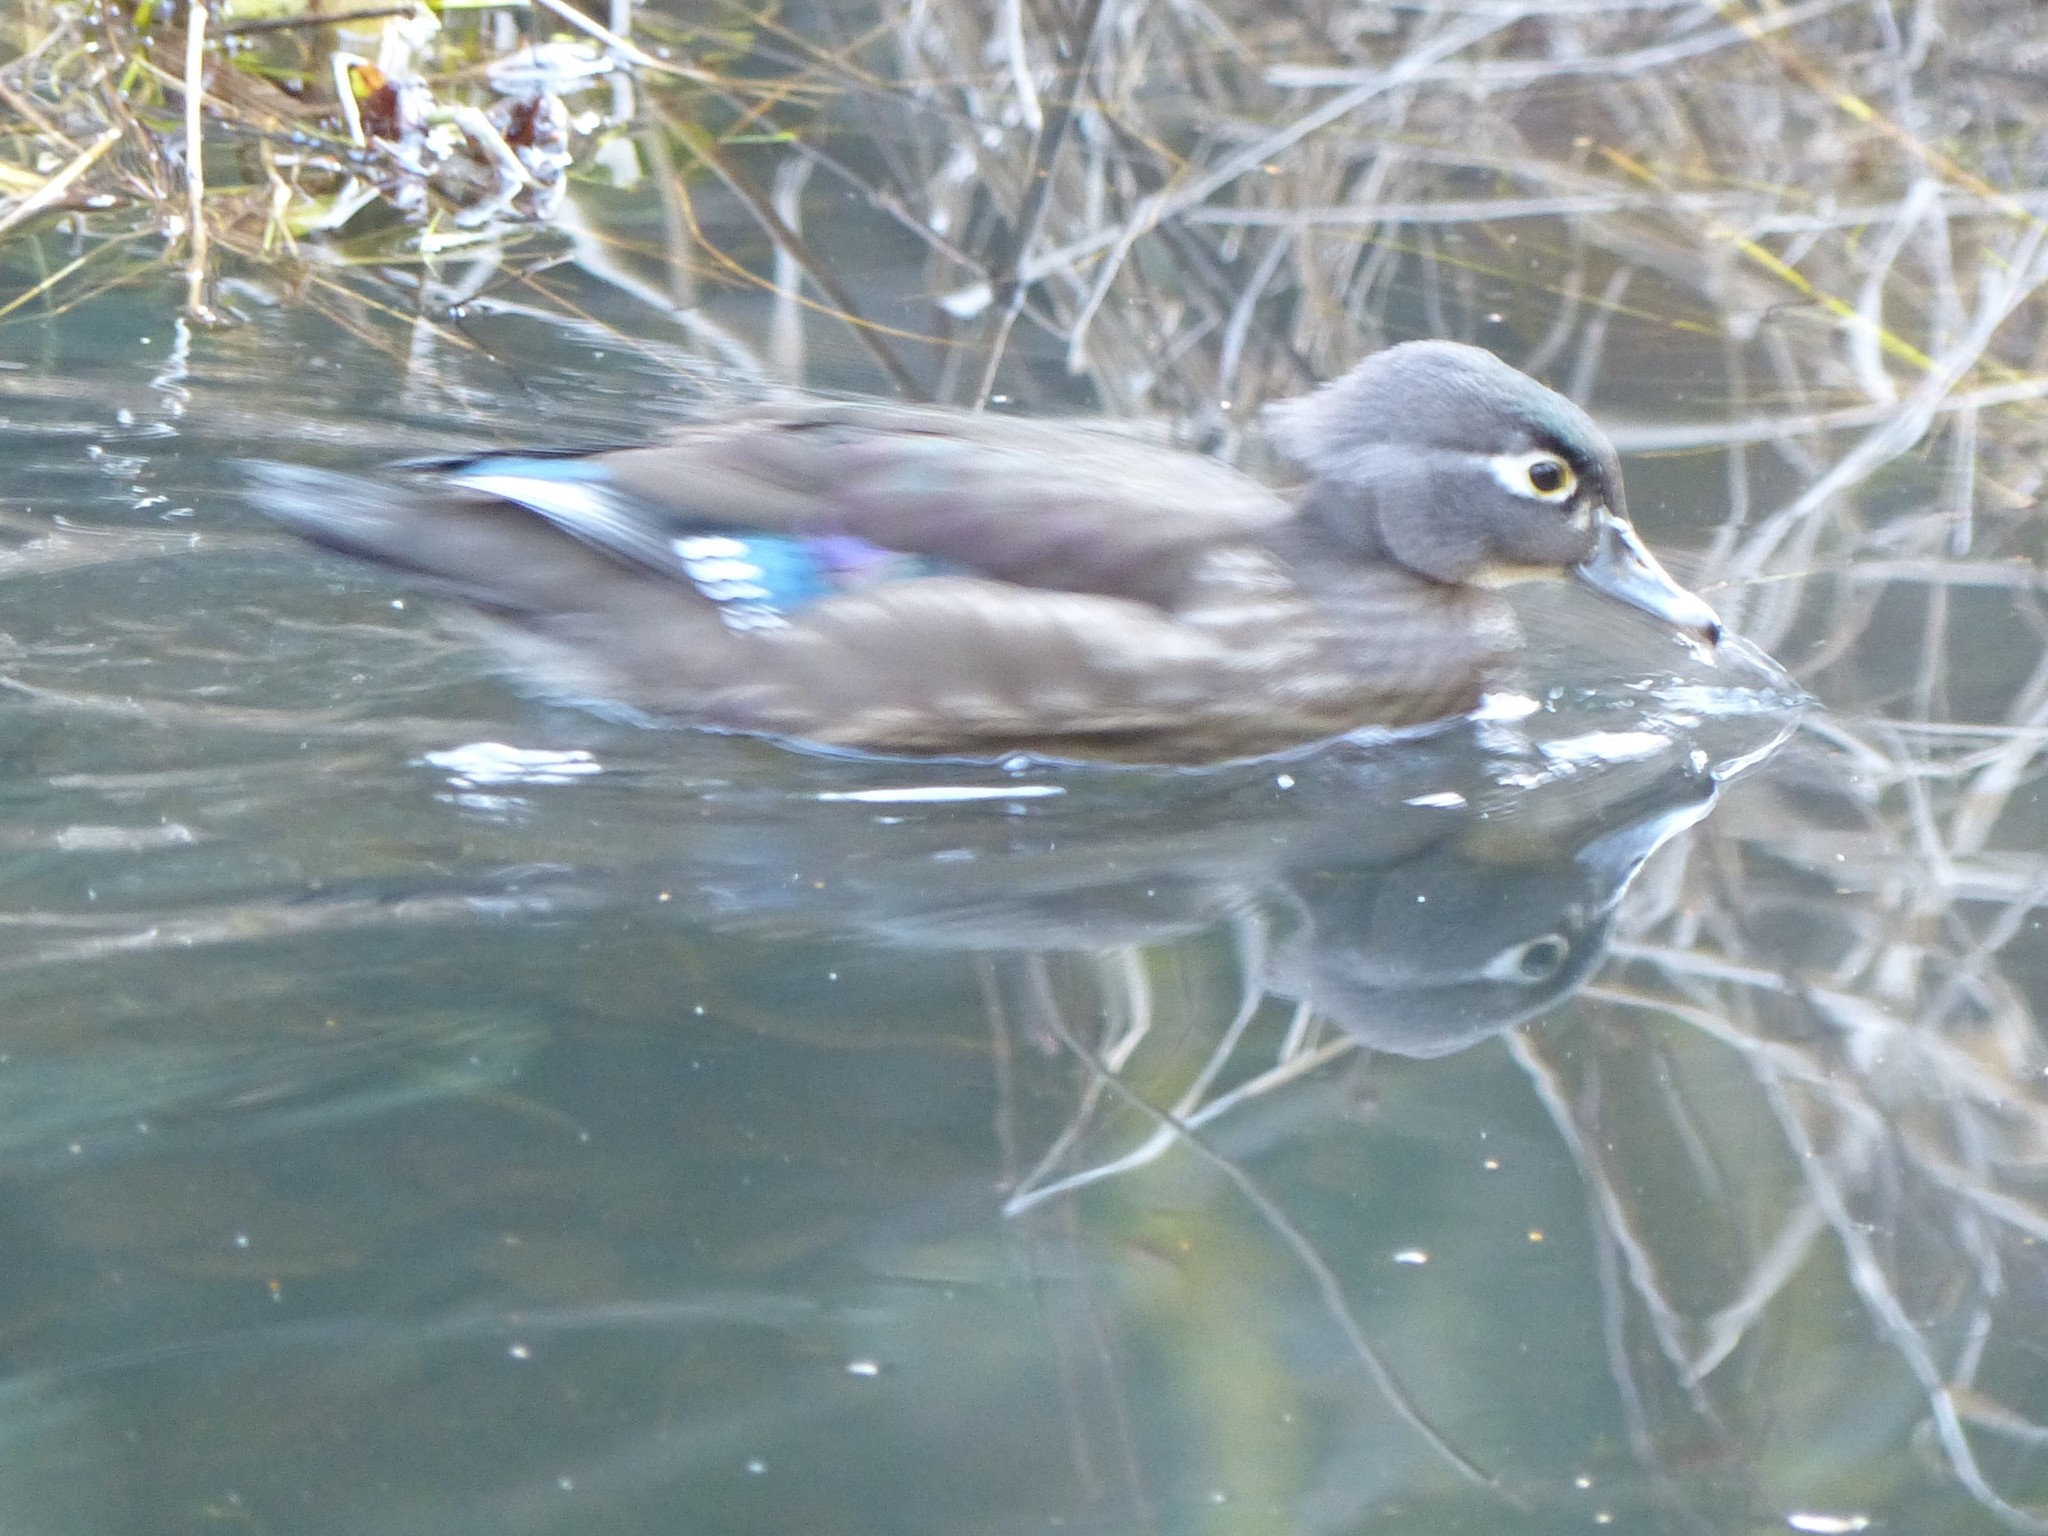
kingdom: Animalia
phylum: Chordata
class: Aves
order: Anseriformes
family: Anatidae
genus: Aix
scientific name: Aix sponsa
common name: Wood duck
